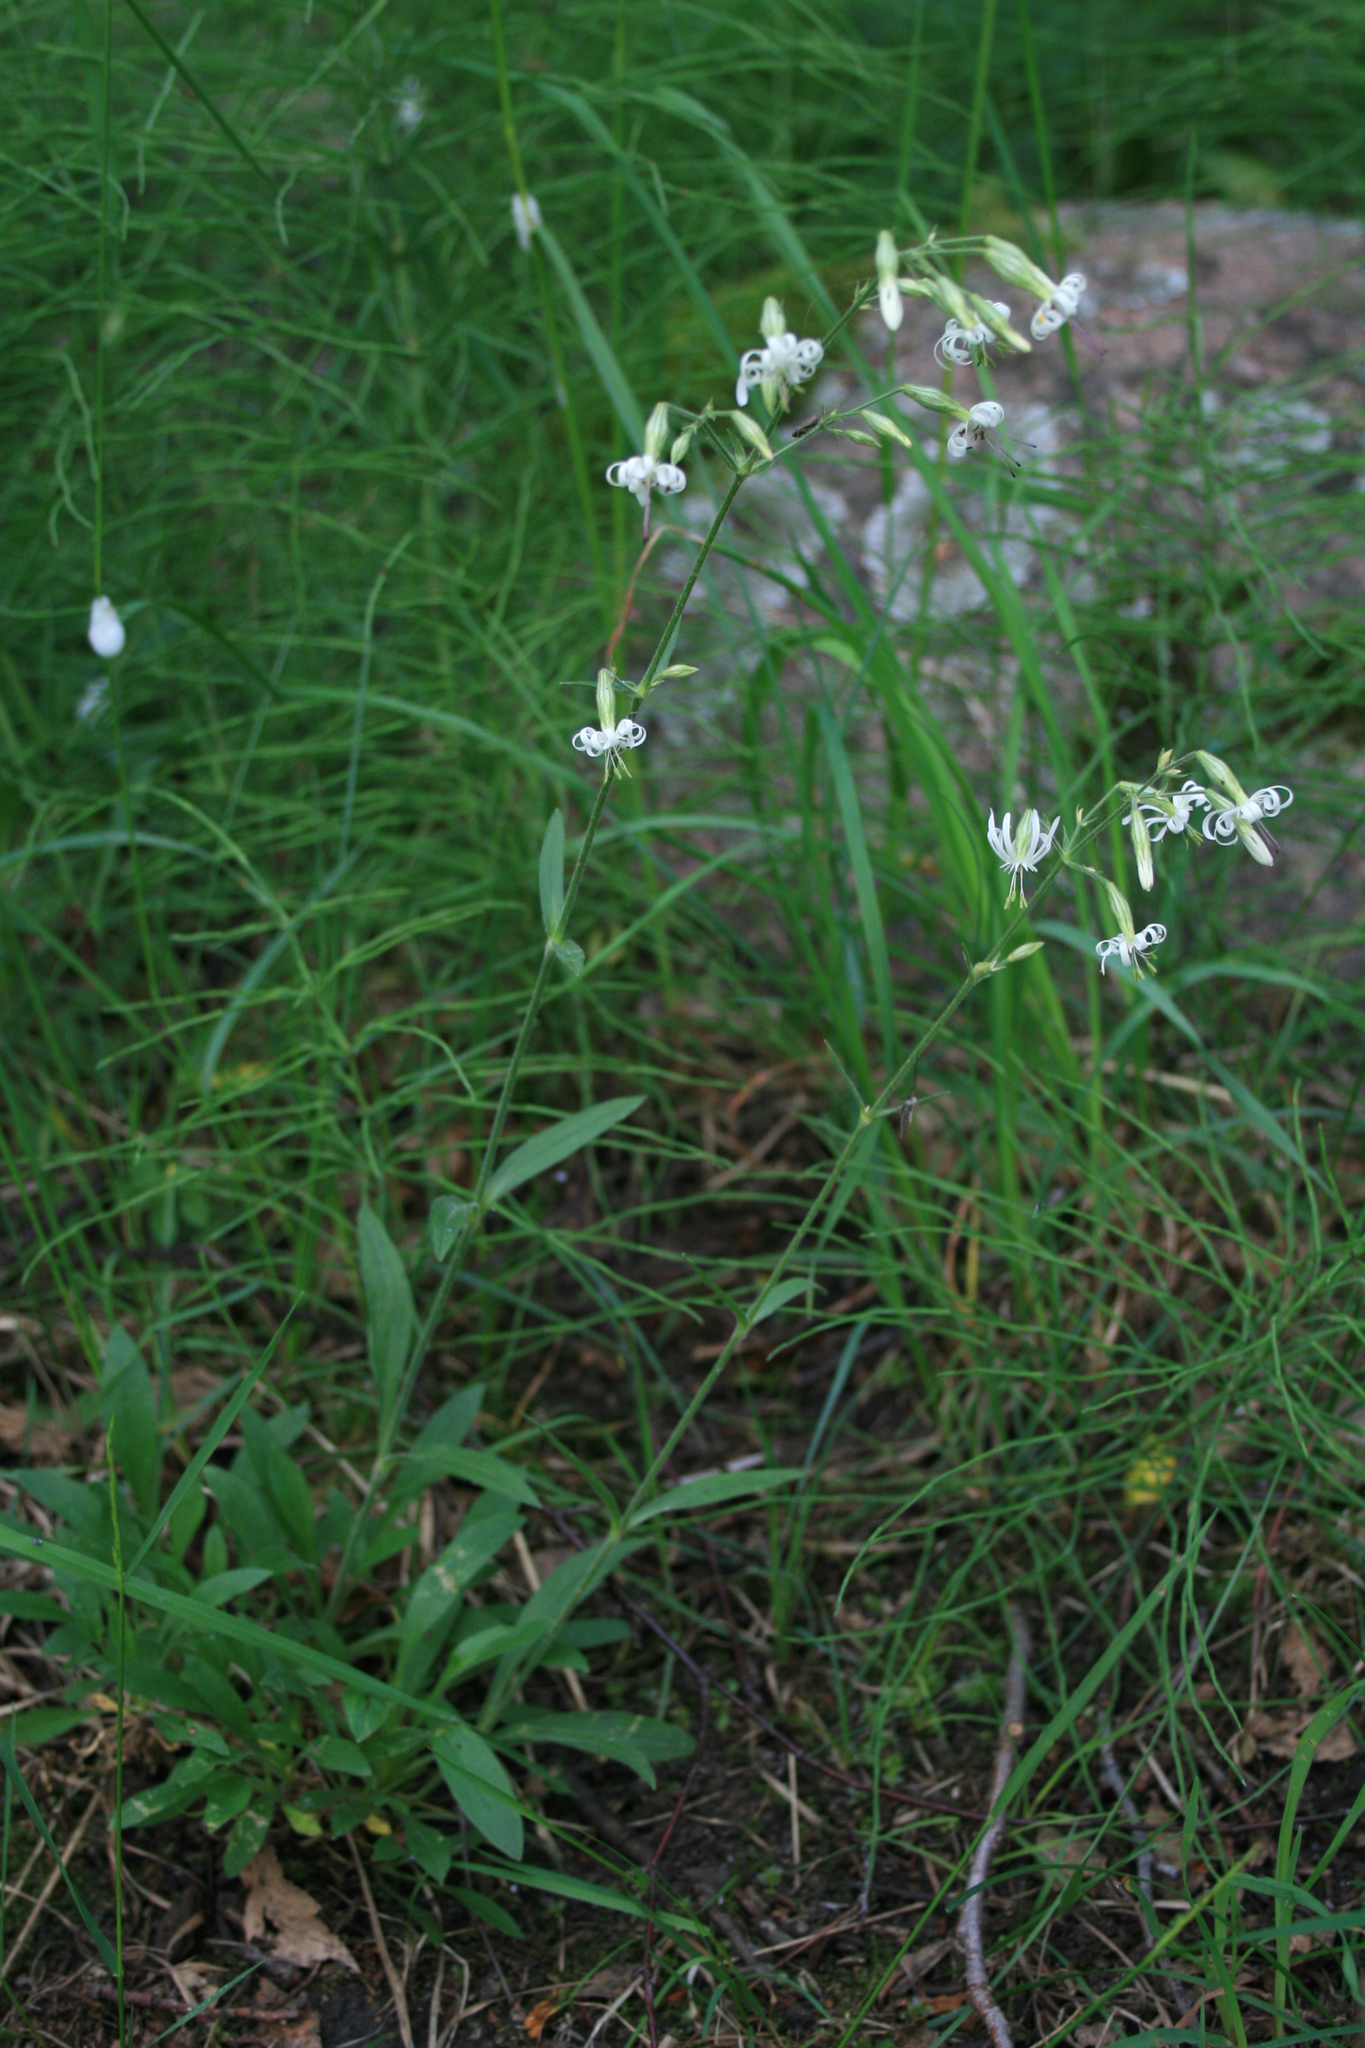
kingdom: Plantae
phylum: Tracheophyta
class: Magnoliopsida
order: Caryophyllales
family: Caryophyllaceae
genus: Silene
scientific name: Silene nutans
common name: Nottingham catchfly
